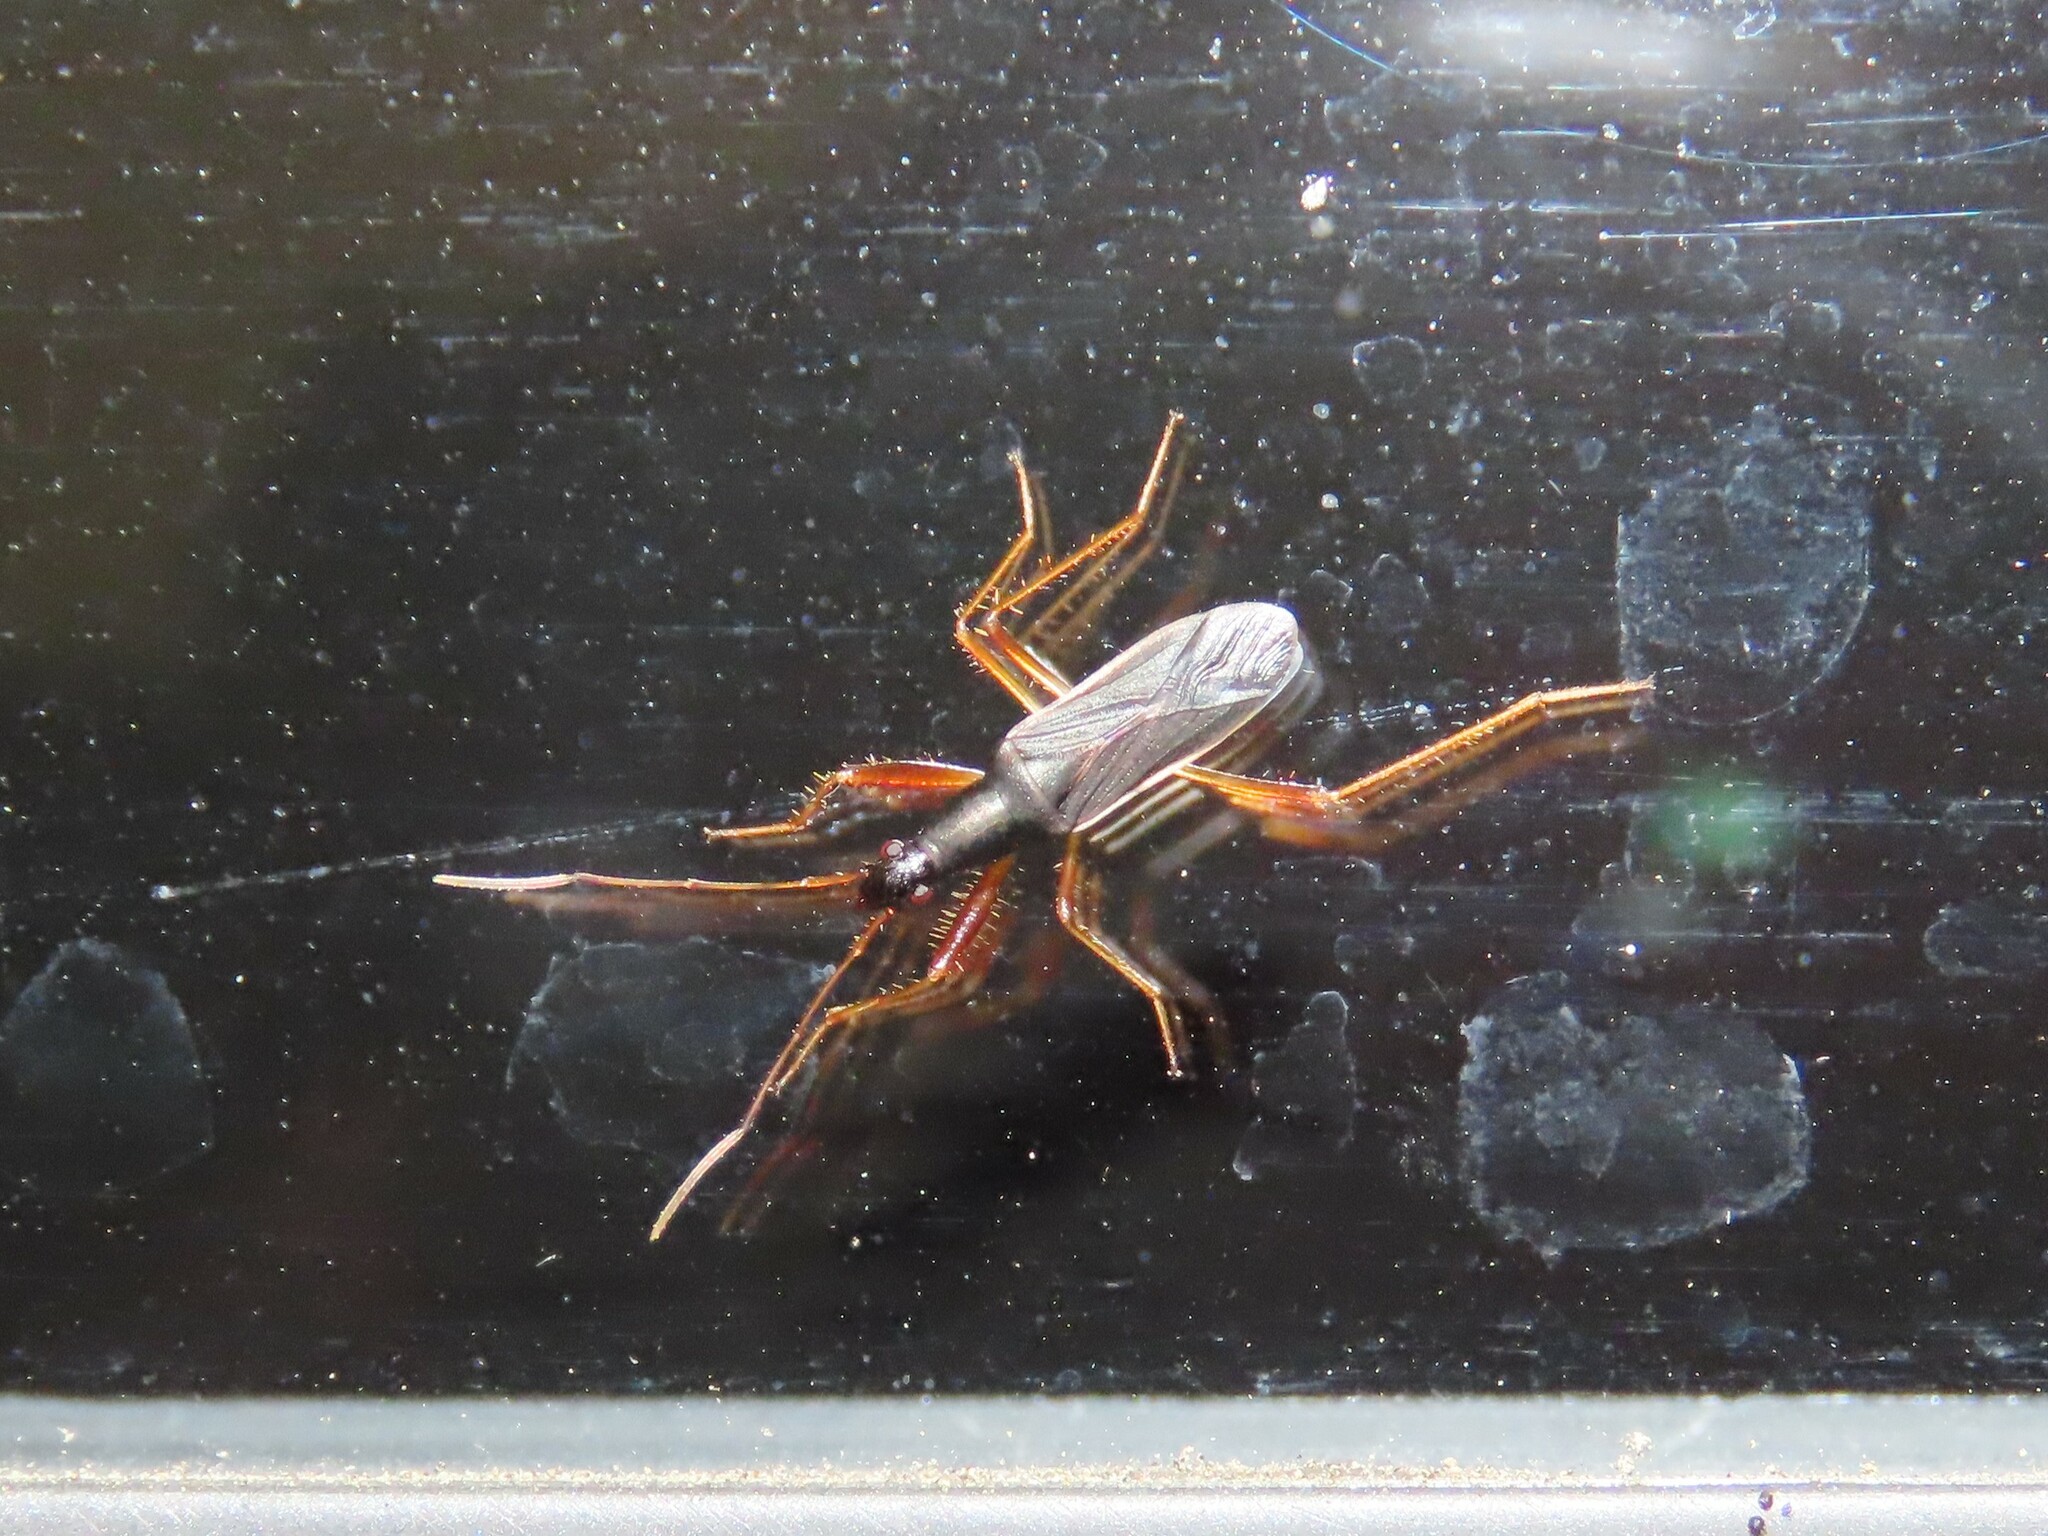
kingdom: Animalia
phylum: Arthropoda
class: Insecta
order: Hemiptera
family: Rhyparochromidae
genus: Cnemodus
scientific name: Cnemodus hirtipes
